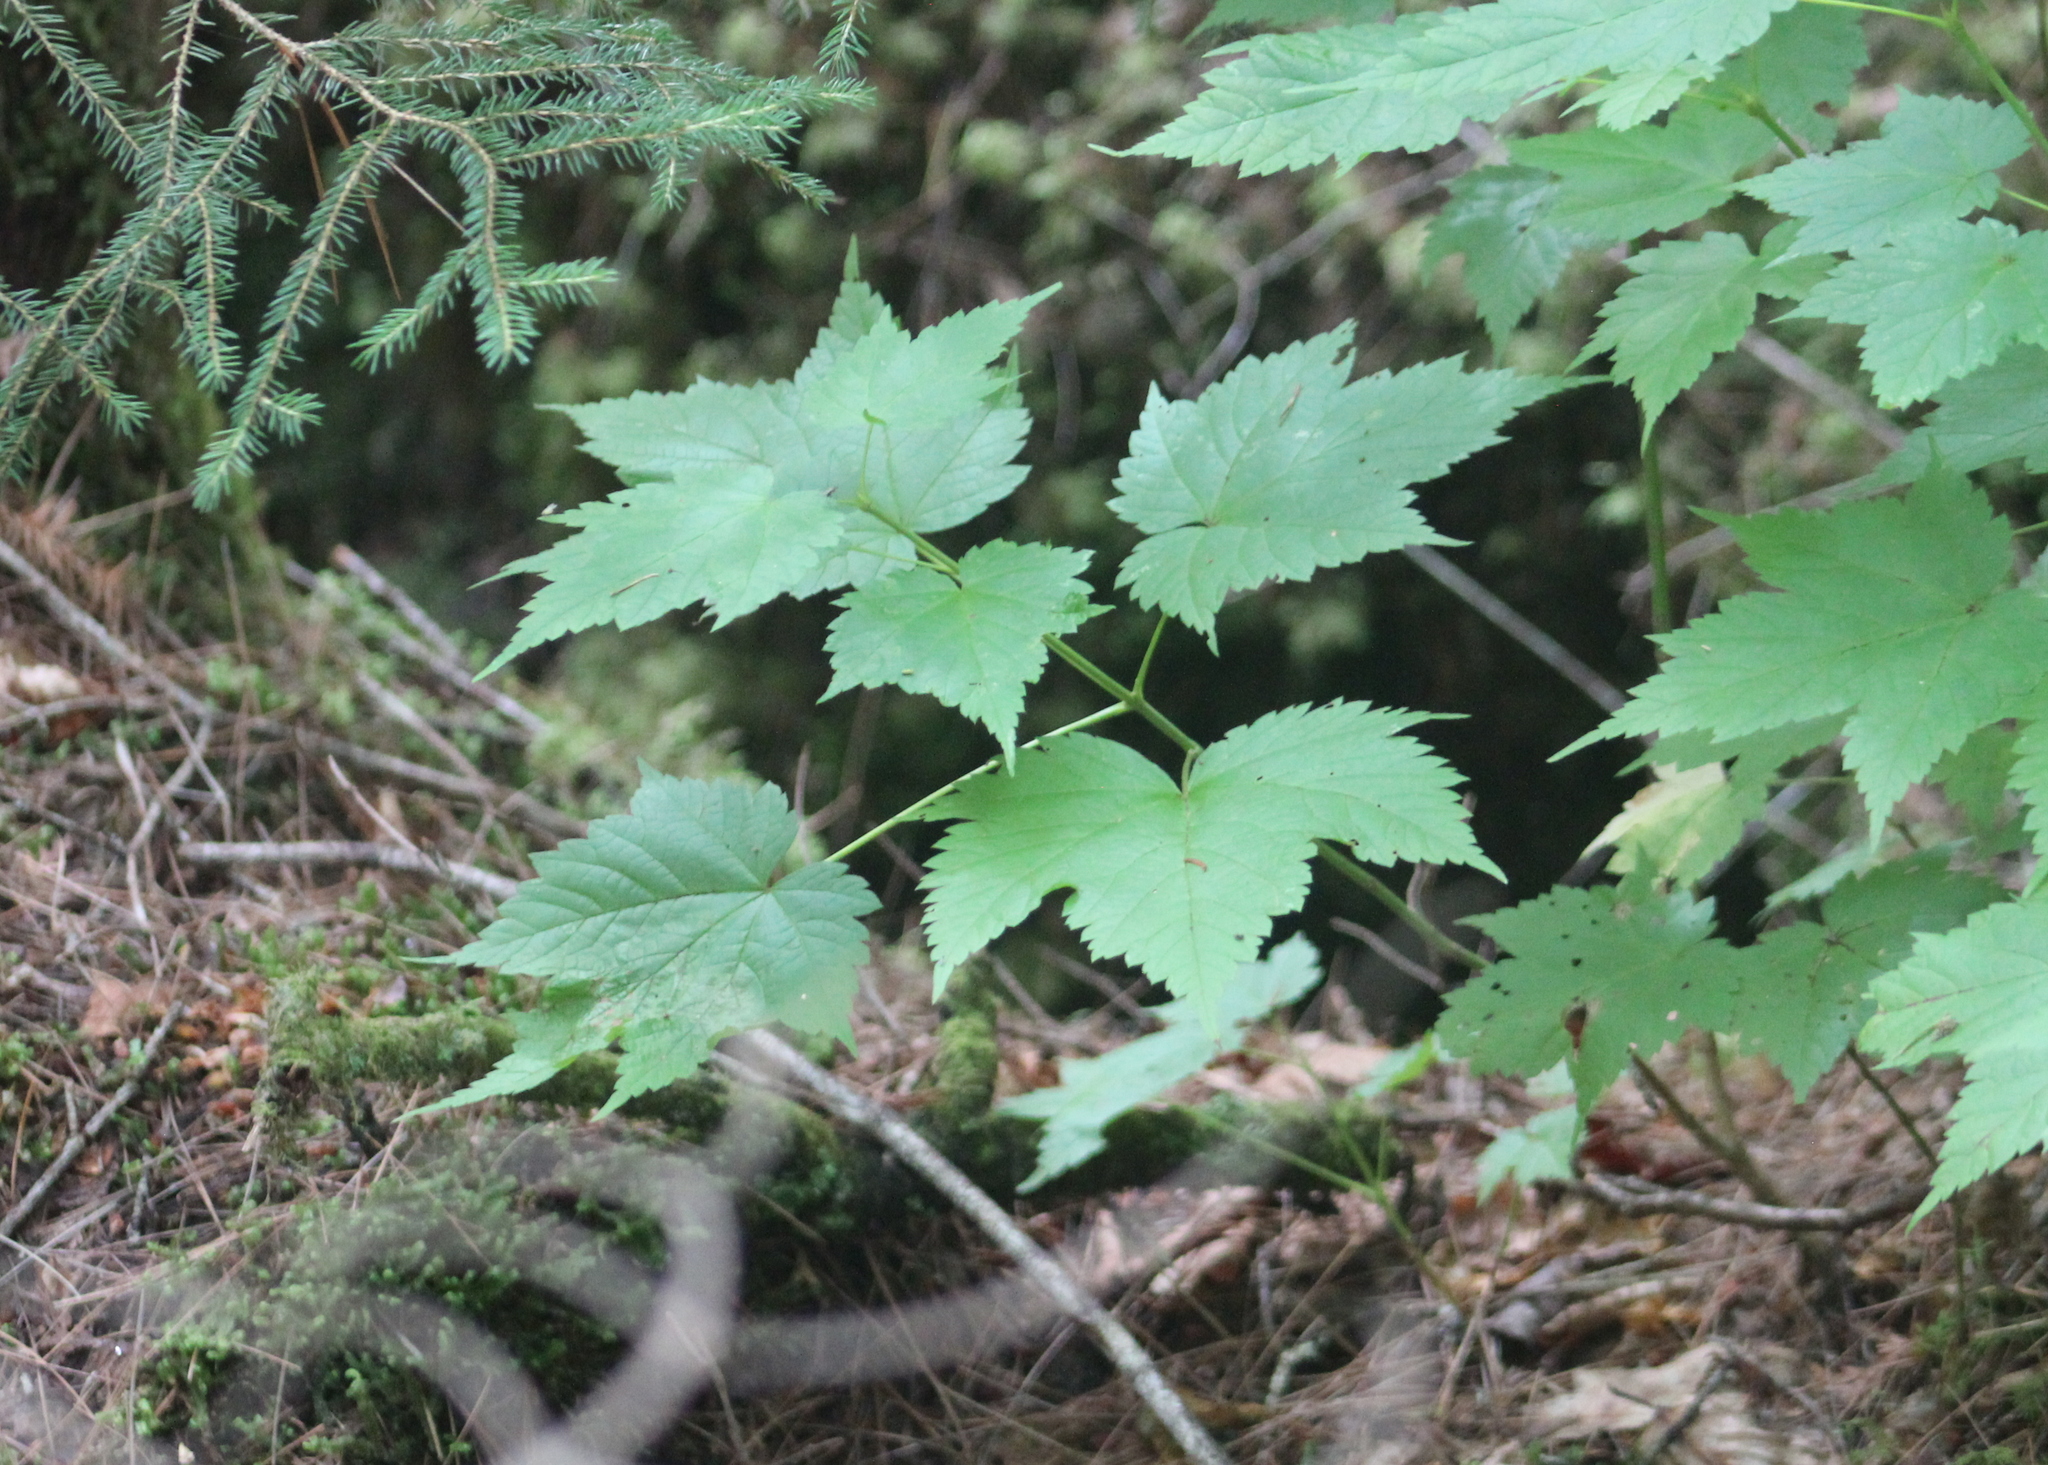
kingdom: Plantae
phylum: Tracheophyta
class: Magnoliopsida
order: Sapindales
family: Sapindaceae
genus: Acer
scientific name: Acer spicatum
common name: Mountain maple
